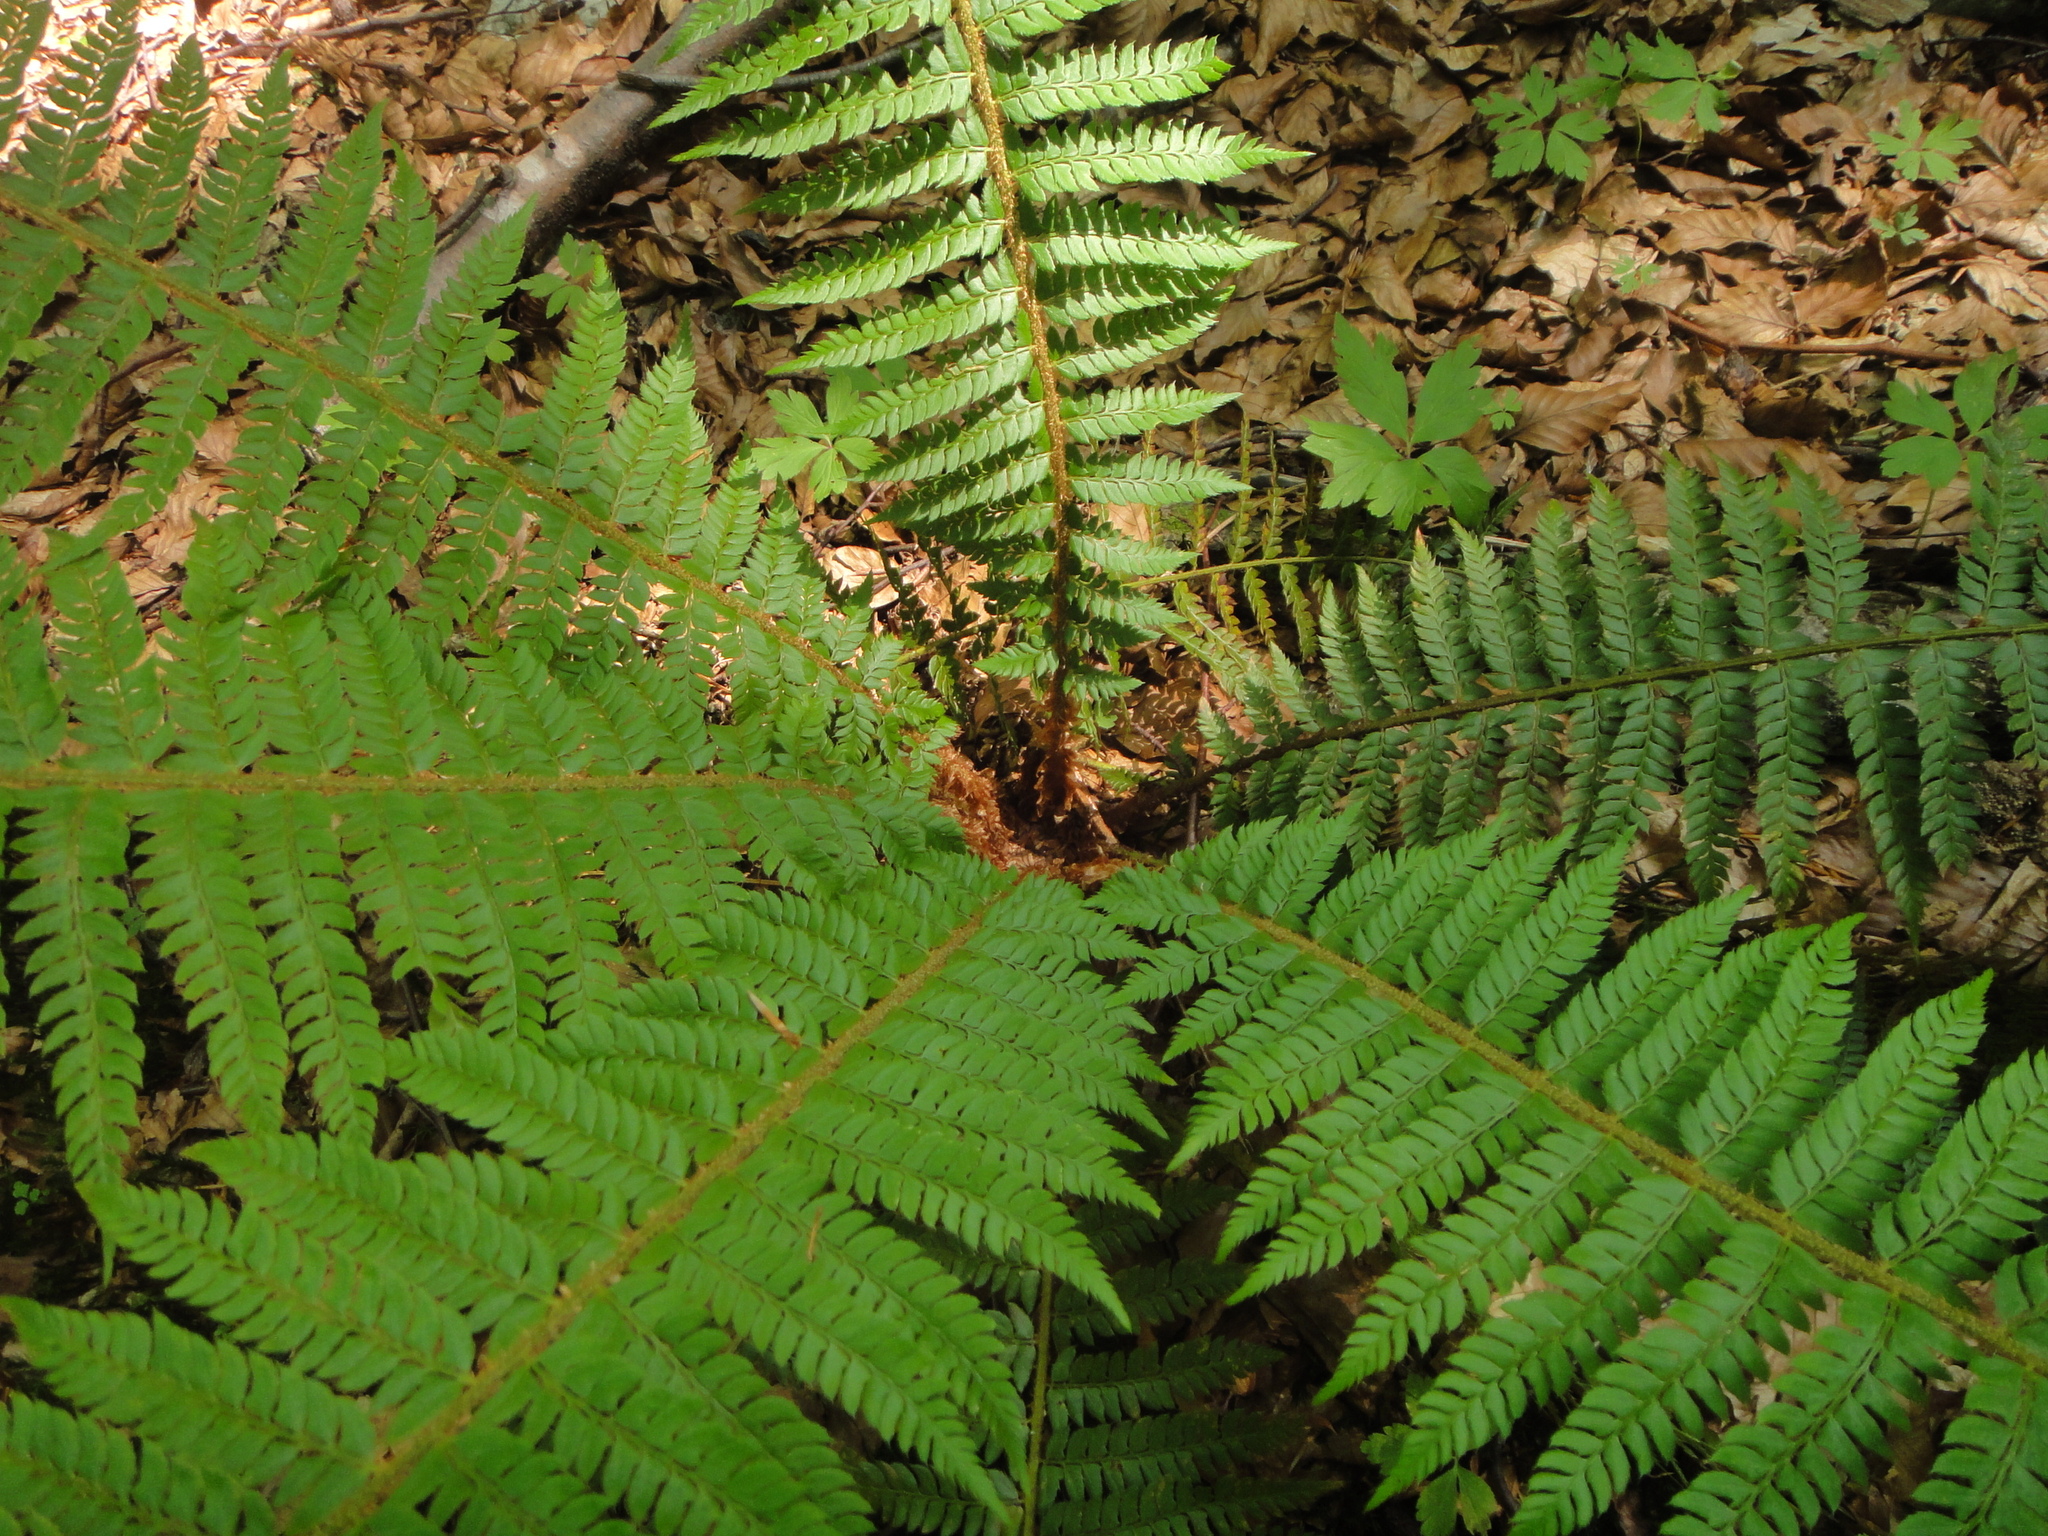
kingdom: Plantae
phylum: Tracheophyta
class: Polypodiopsida
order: Polypodiales
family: Dryopteridaceae
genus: Polystichum
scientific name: Polystichum aculeatum
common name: Hard shield-fern
